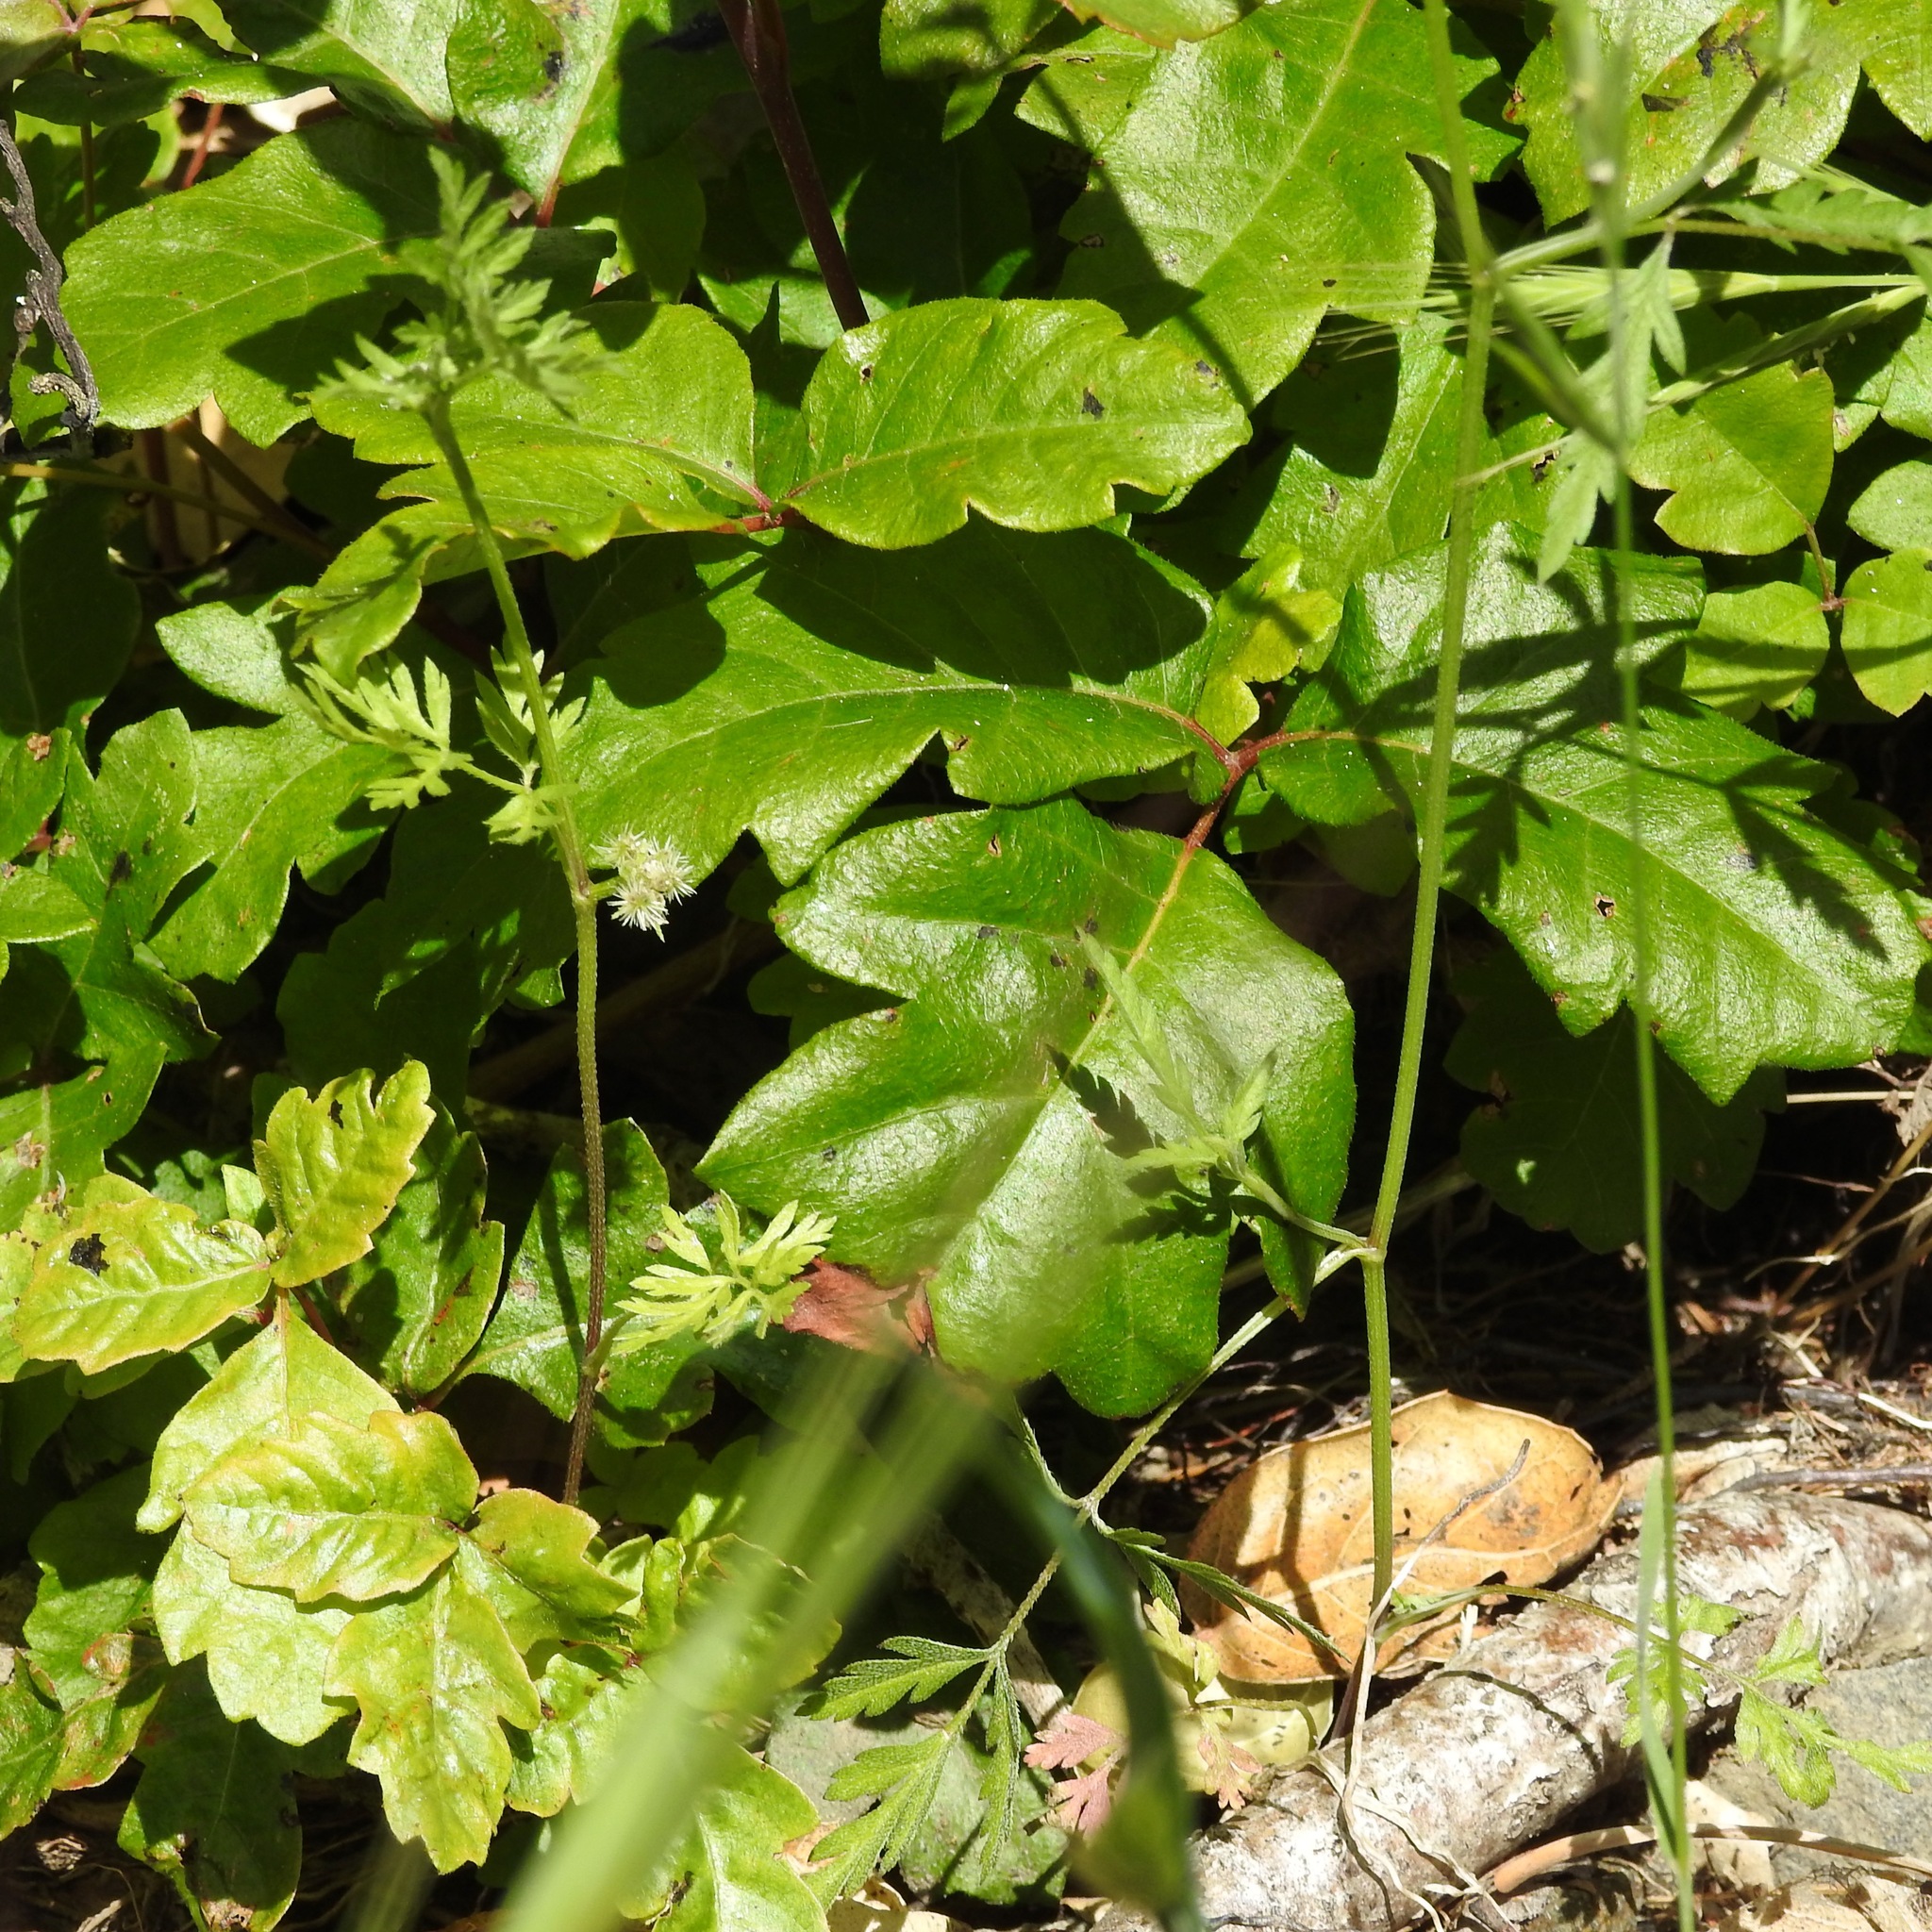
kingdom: Plantae
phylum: Tracheophyta
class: Magnoliopsida
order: Sapindales
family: Anacardiaceae
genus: Toxicodendron
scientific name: Toxicodendron diversilobum
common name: Pacific poison-oak
